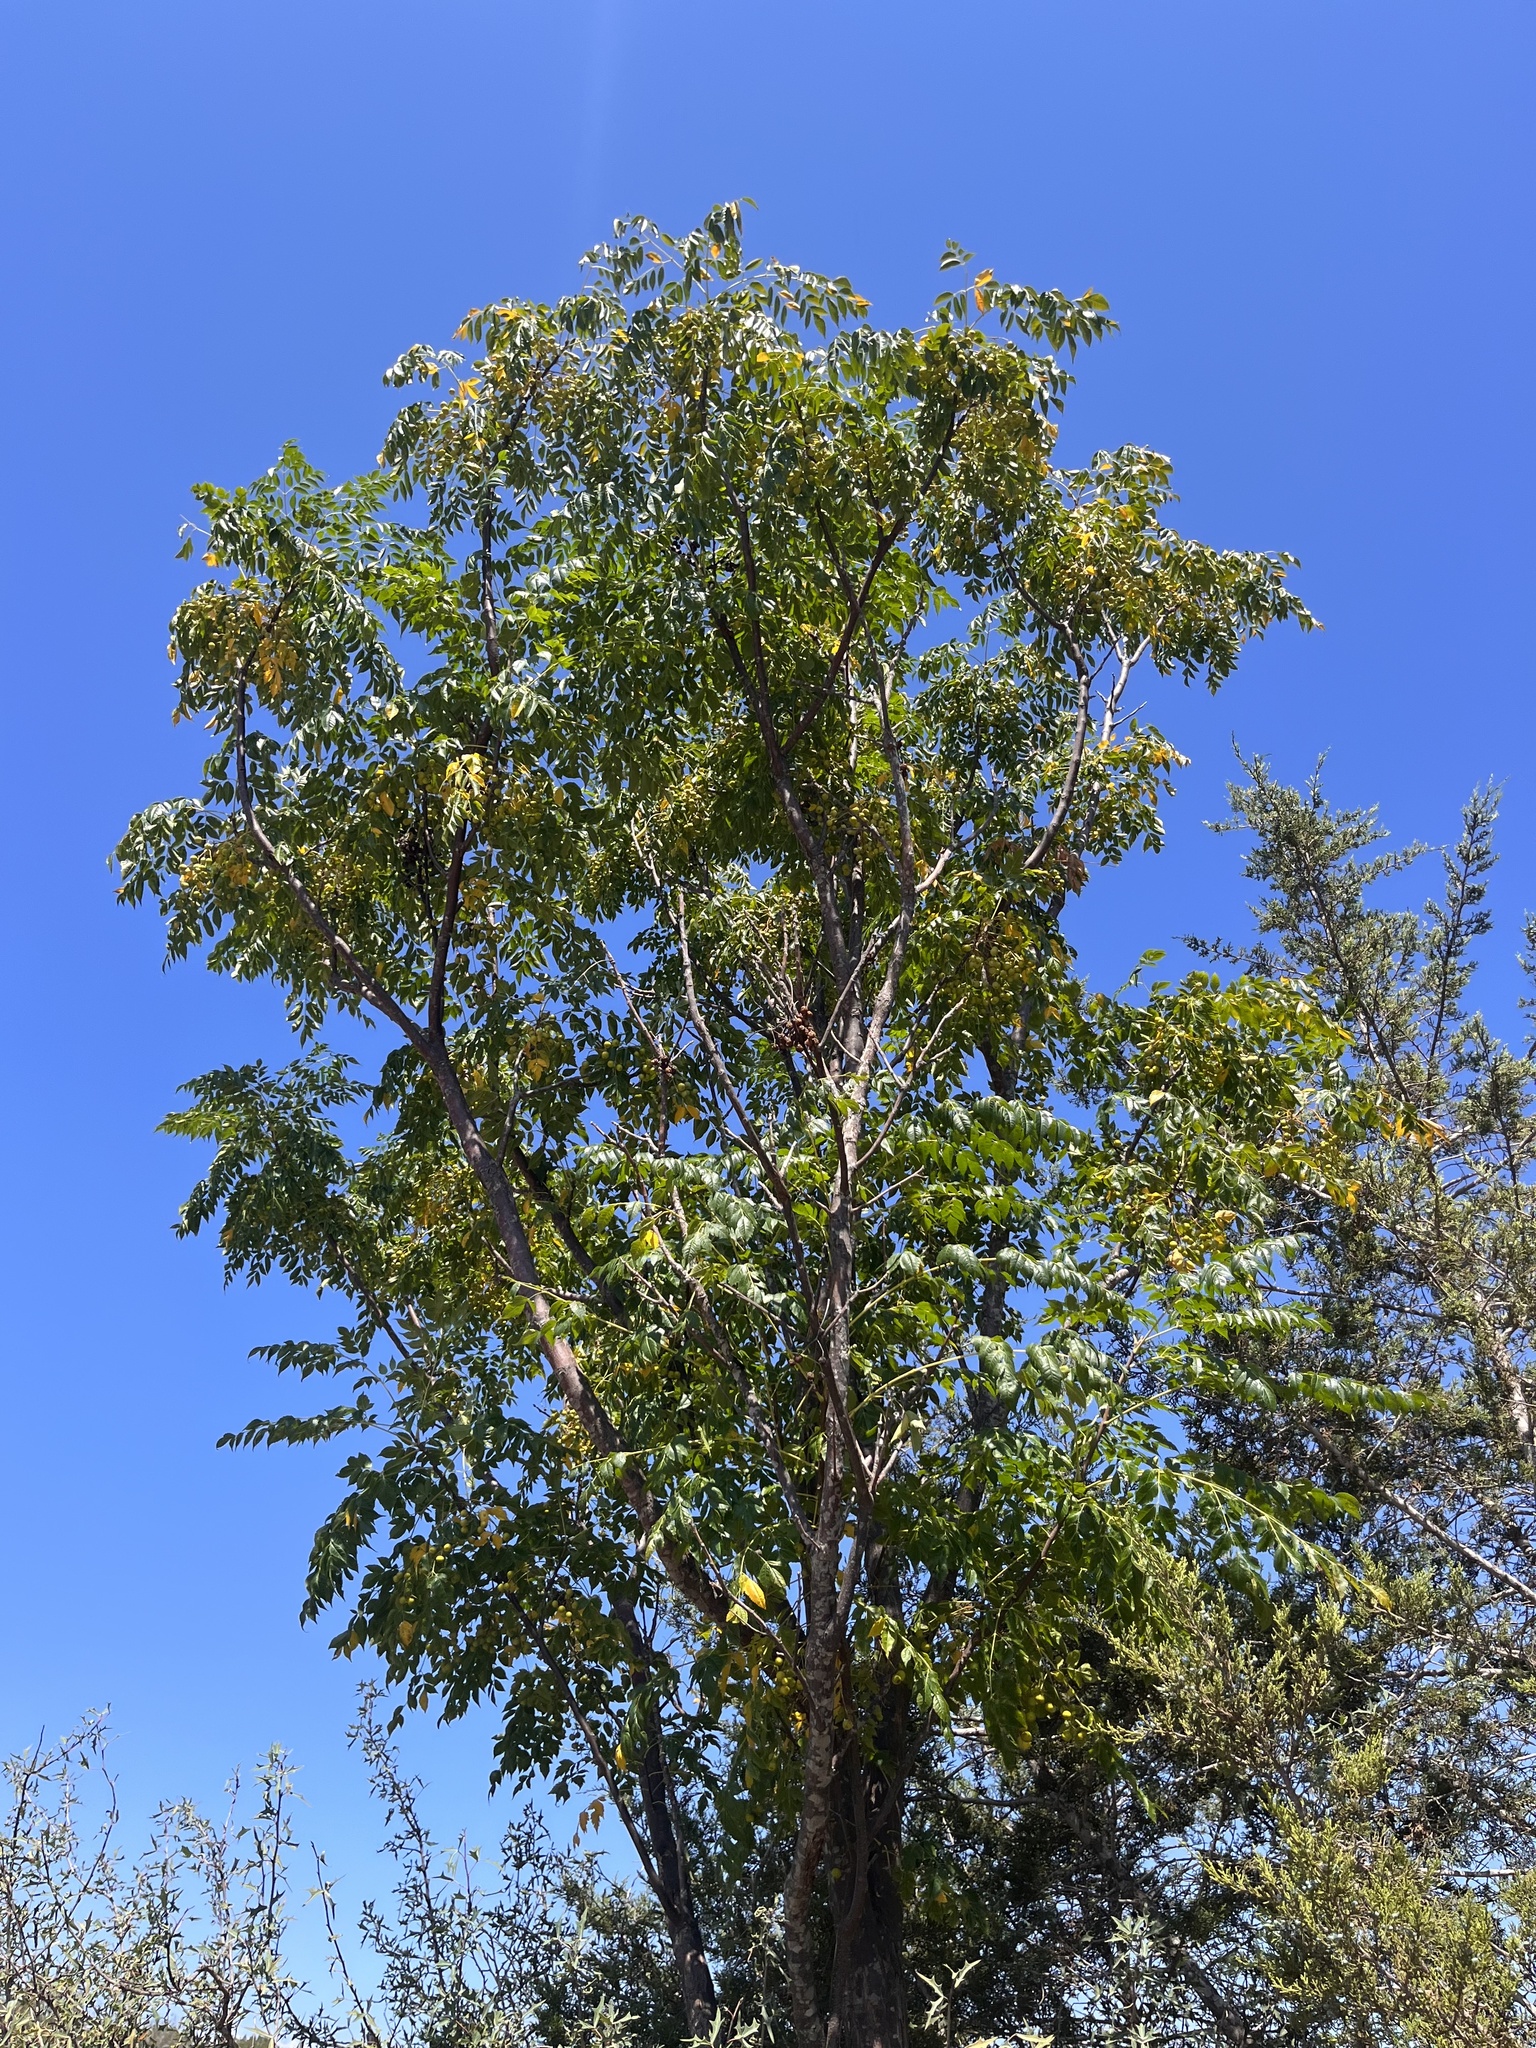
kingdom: Plantae
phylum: Tracheophyta
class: Magnoliopsida
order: Sapindales
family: Meliaceae
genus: Melia
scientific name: Melia azedarach
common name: Chinaberrytree
